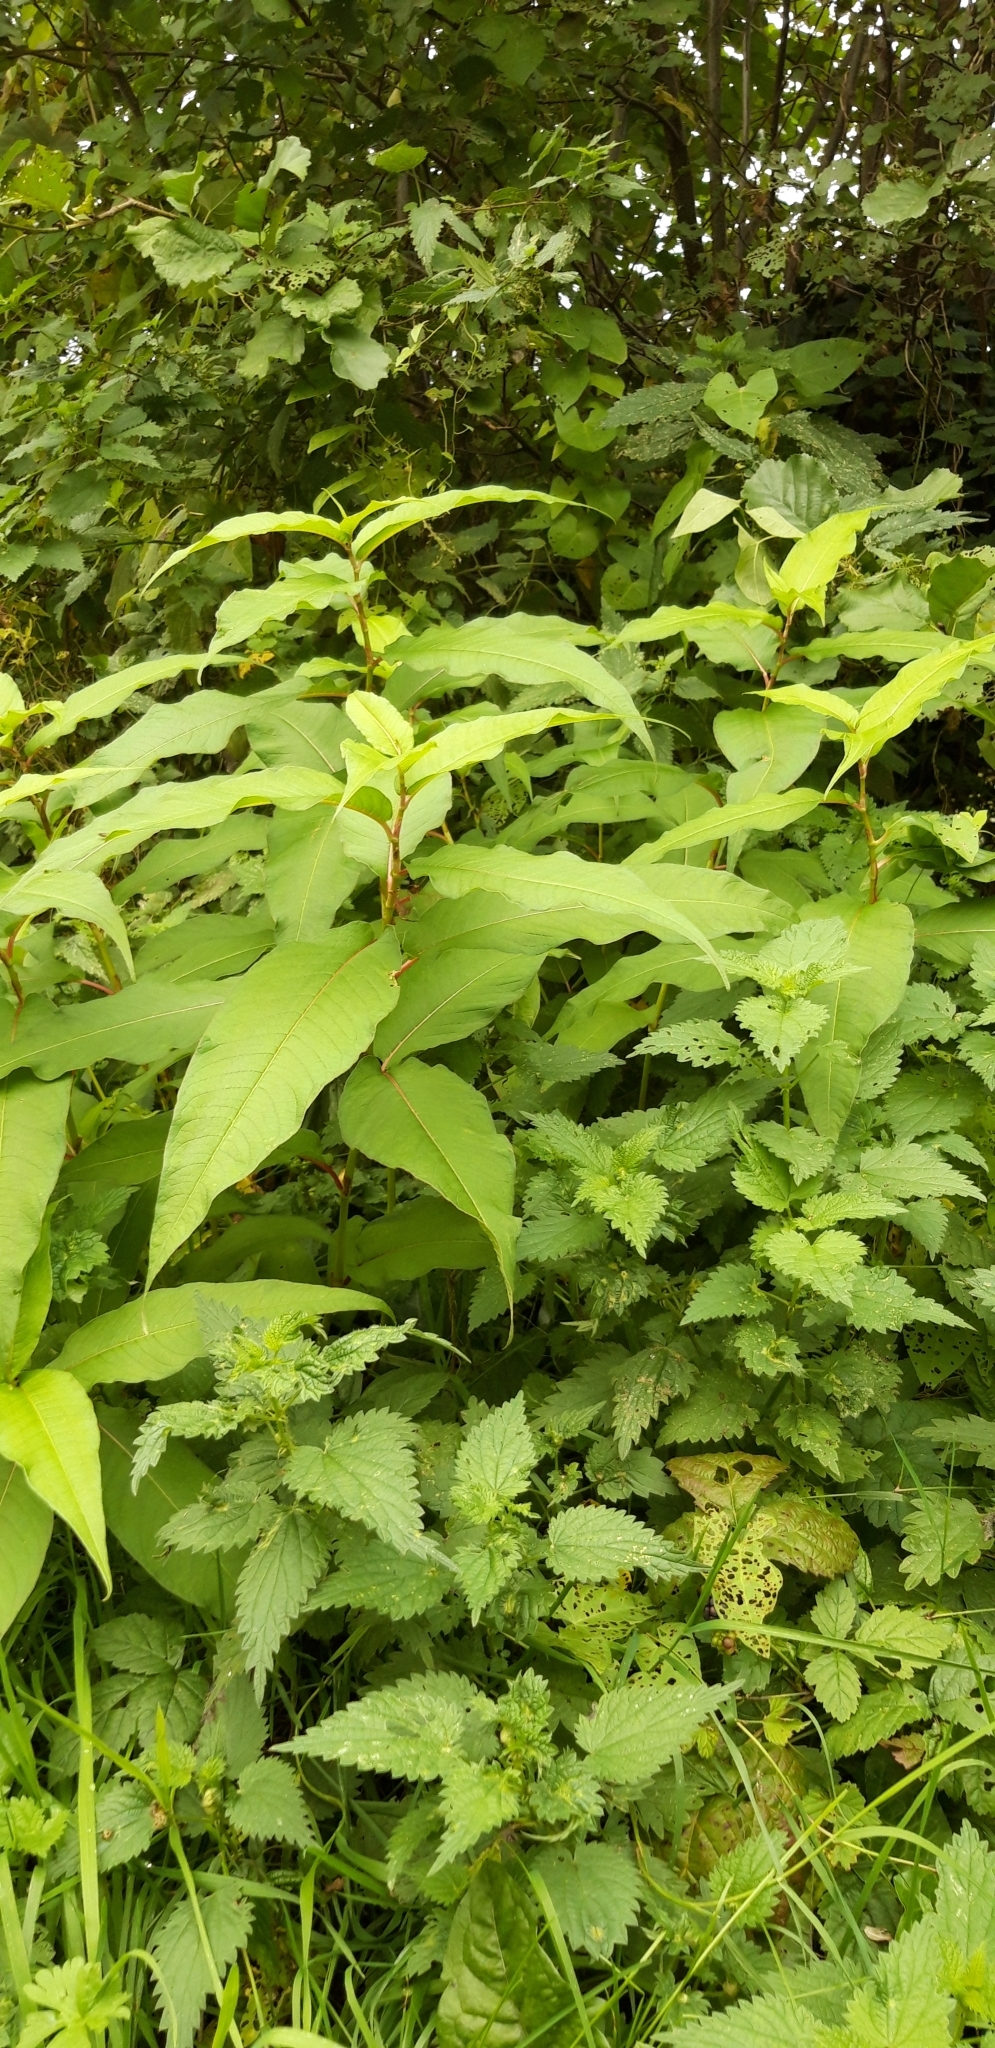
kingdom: Plantae
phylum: Tracheophyta
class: Magnoliopsida
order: Caryophyllales
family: Polygonaceae
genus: Koenigia
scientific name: Koenigia polystachya
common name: Himalayan knotweed
